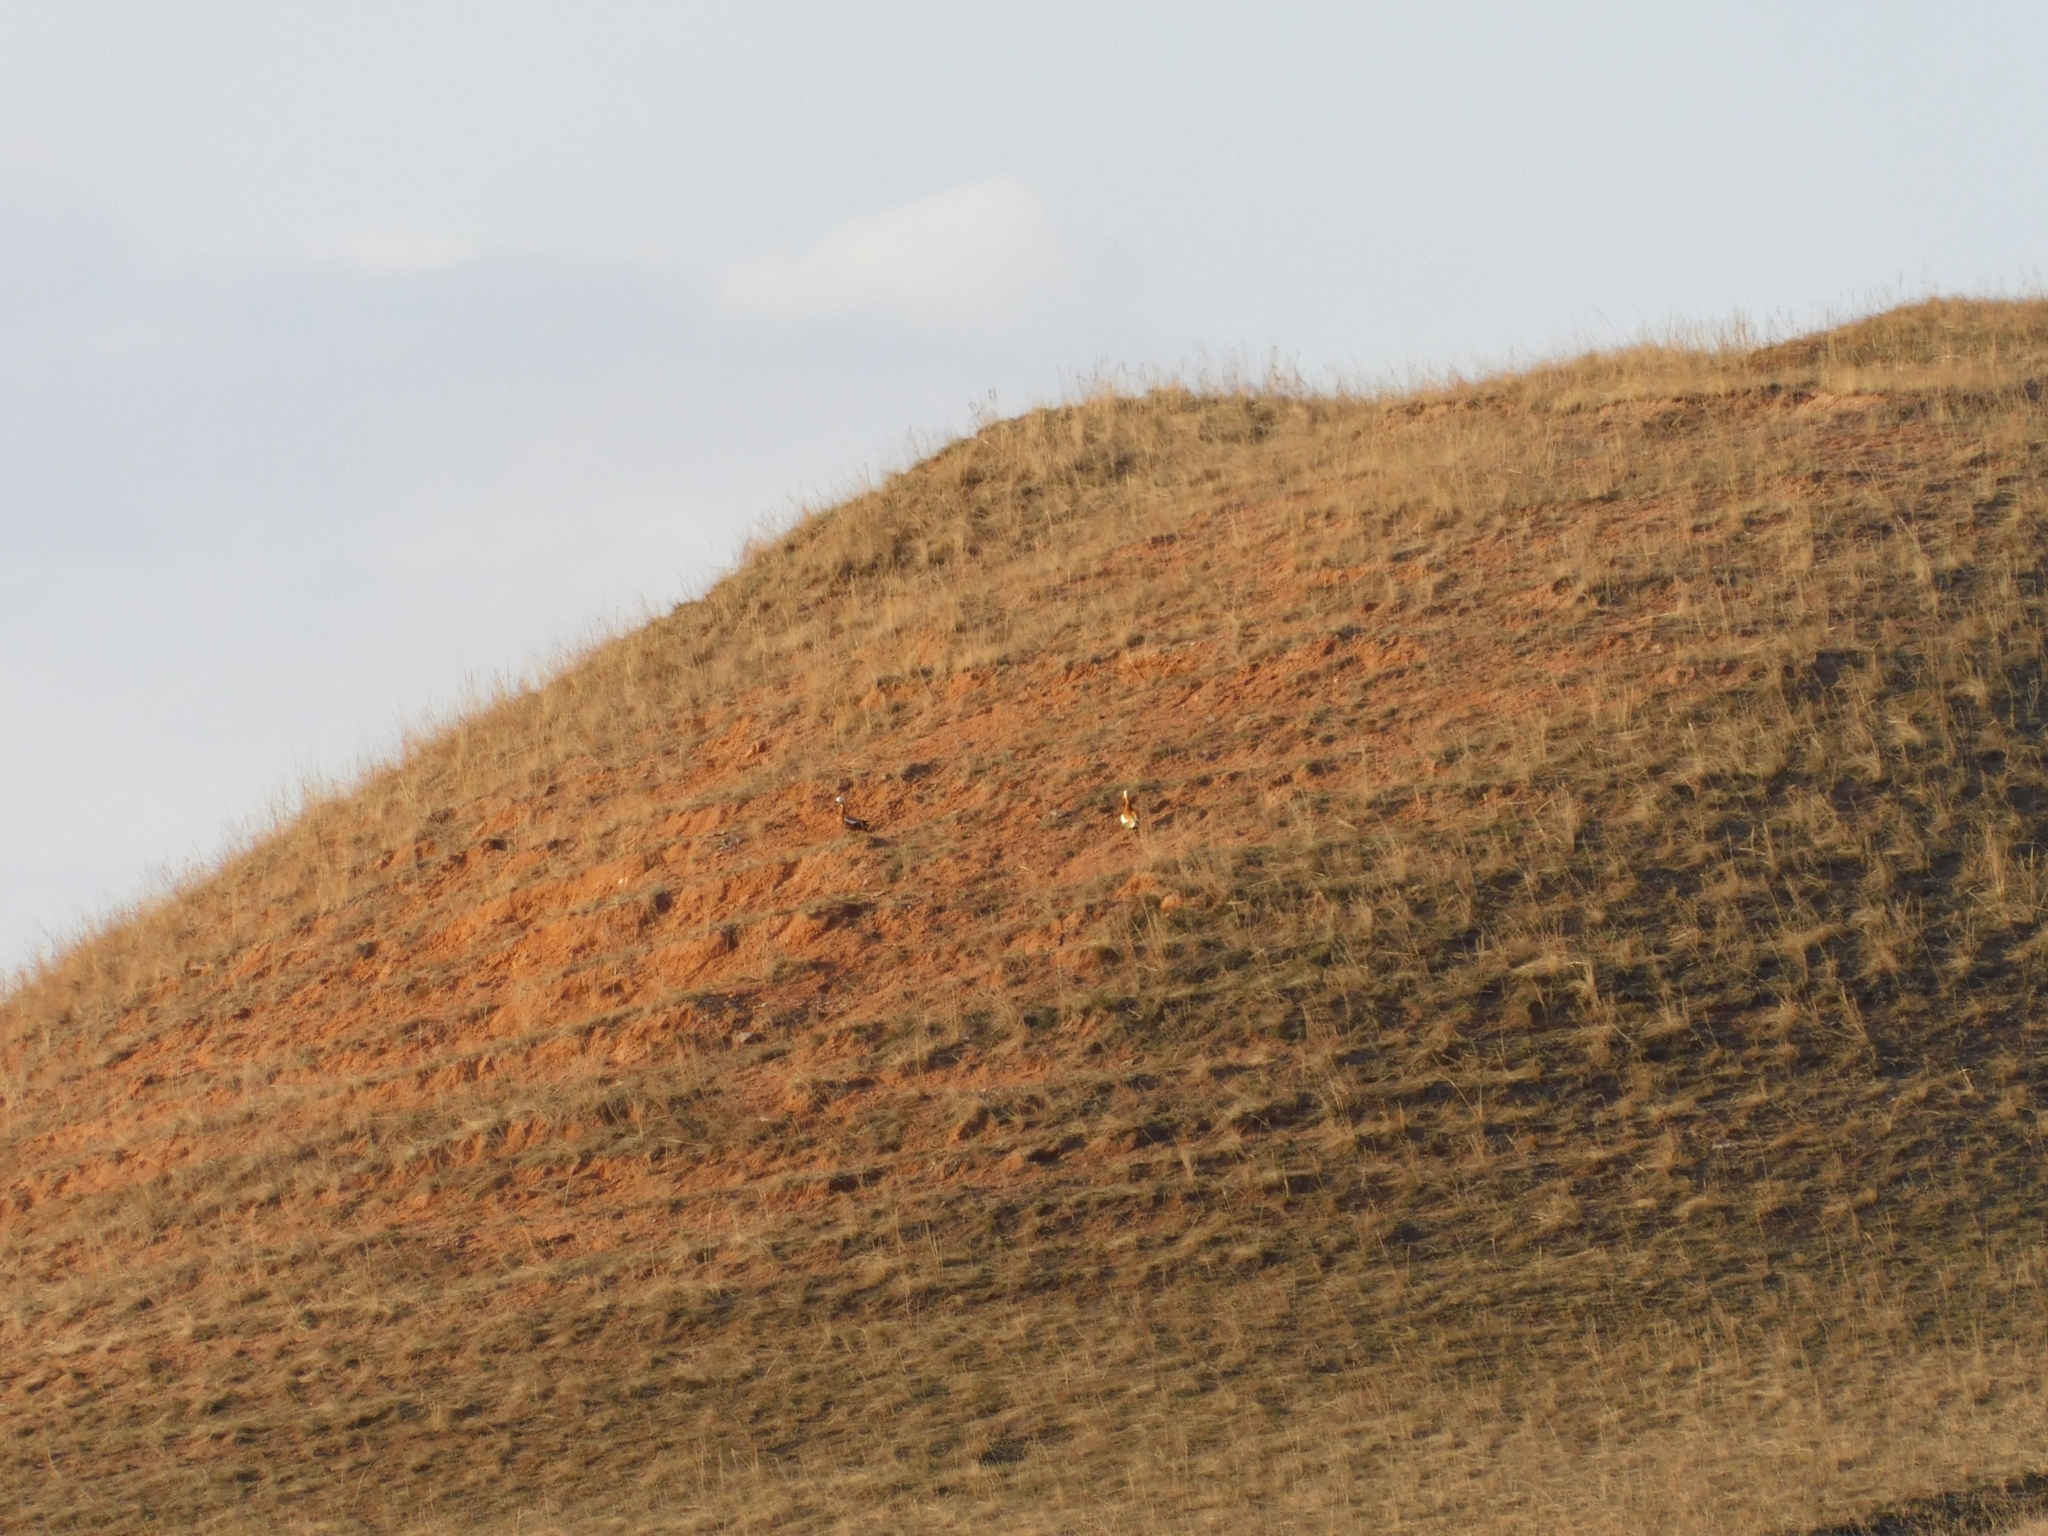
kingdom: Animalia
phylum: Chordata
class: Aves
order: Anseriformes
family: Anatidae
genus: Tadorna
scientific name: Tadorna ferruginea
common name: Ruddy shelduck
